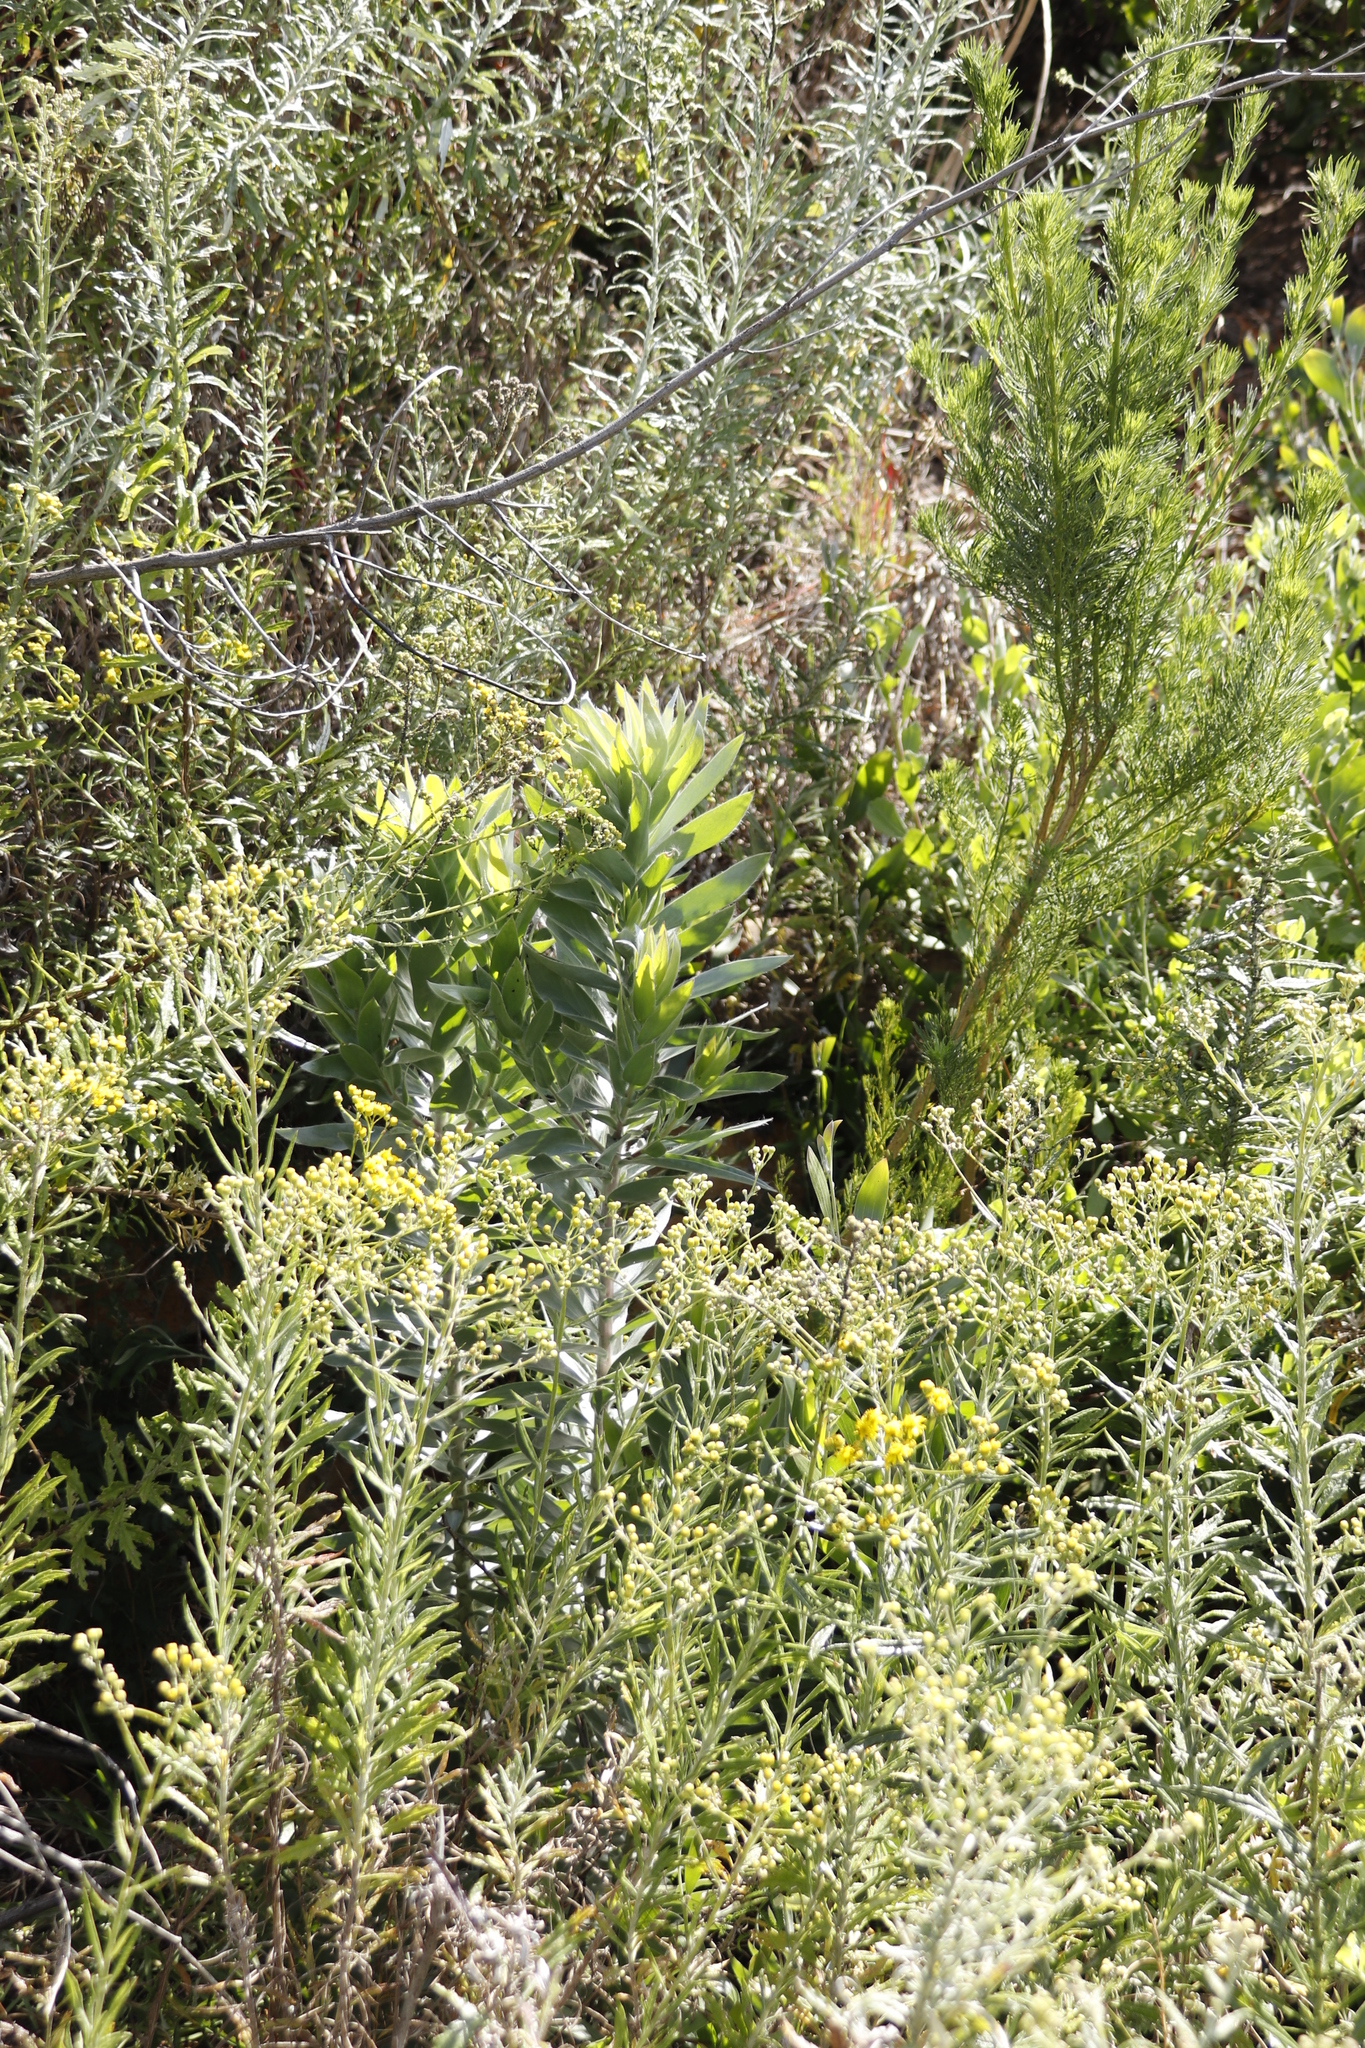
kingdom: Plantae
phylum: Tracheophyta
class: Magnoliopsida
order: Proteales
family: Proteaceae
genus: Leucadendron
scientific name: Leucadendron argenteum
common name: Cape silver tree
